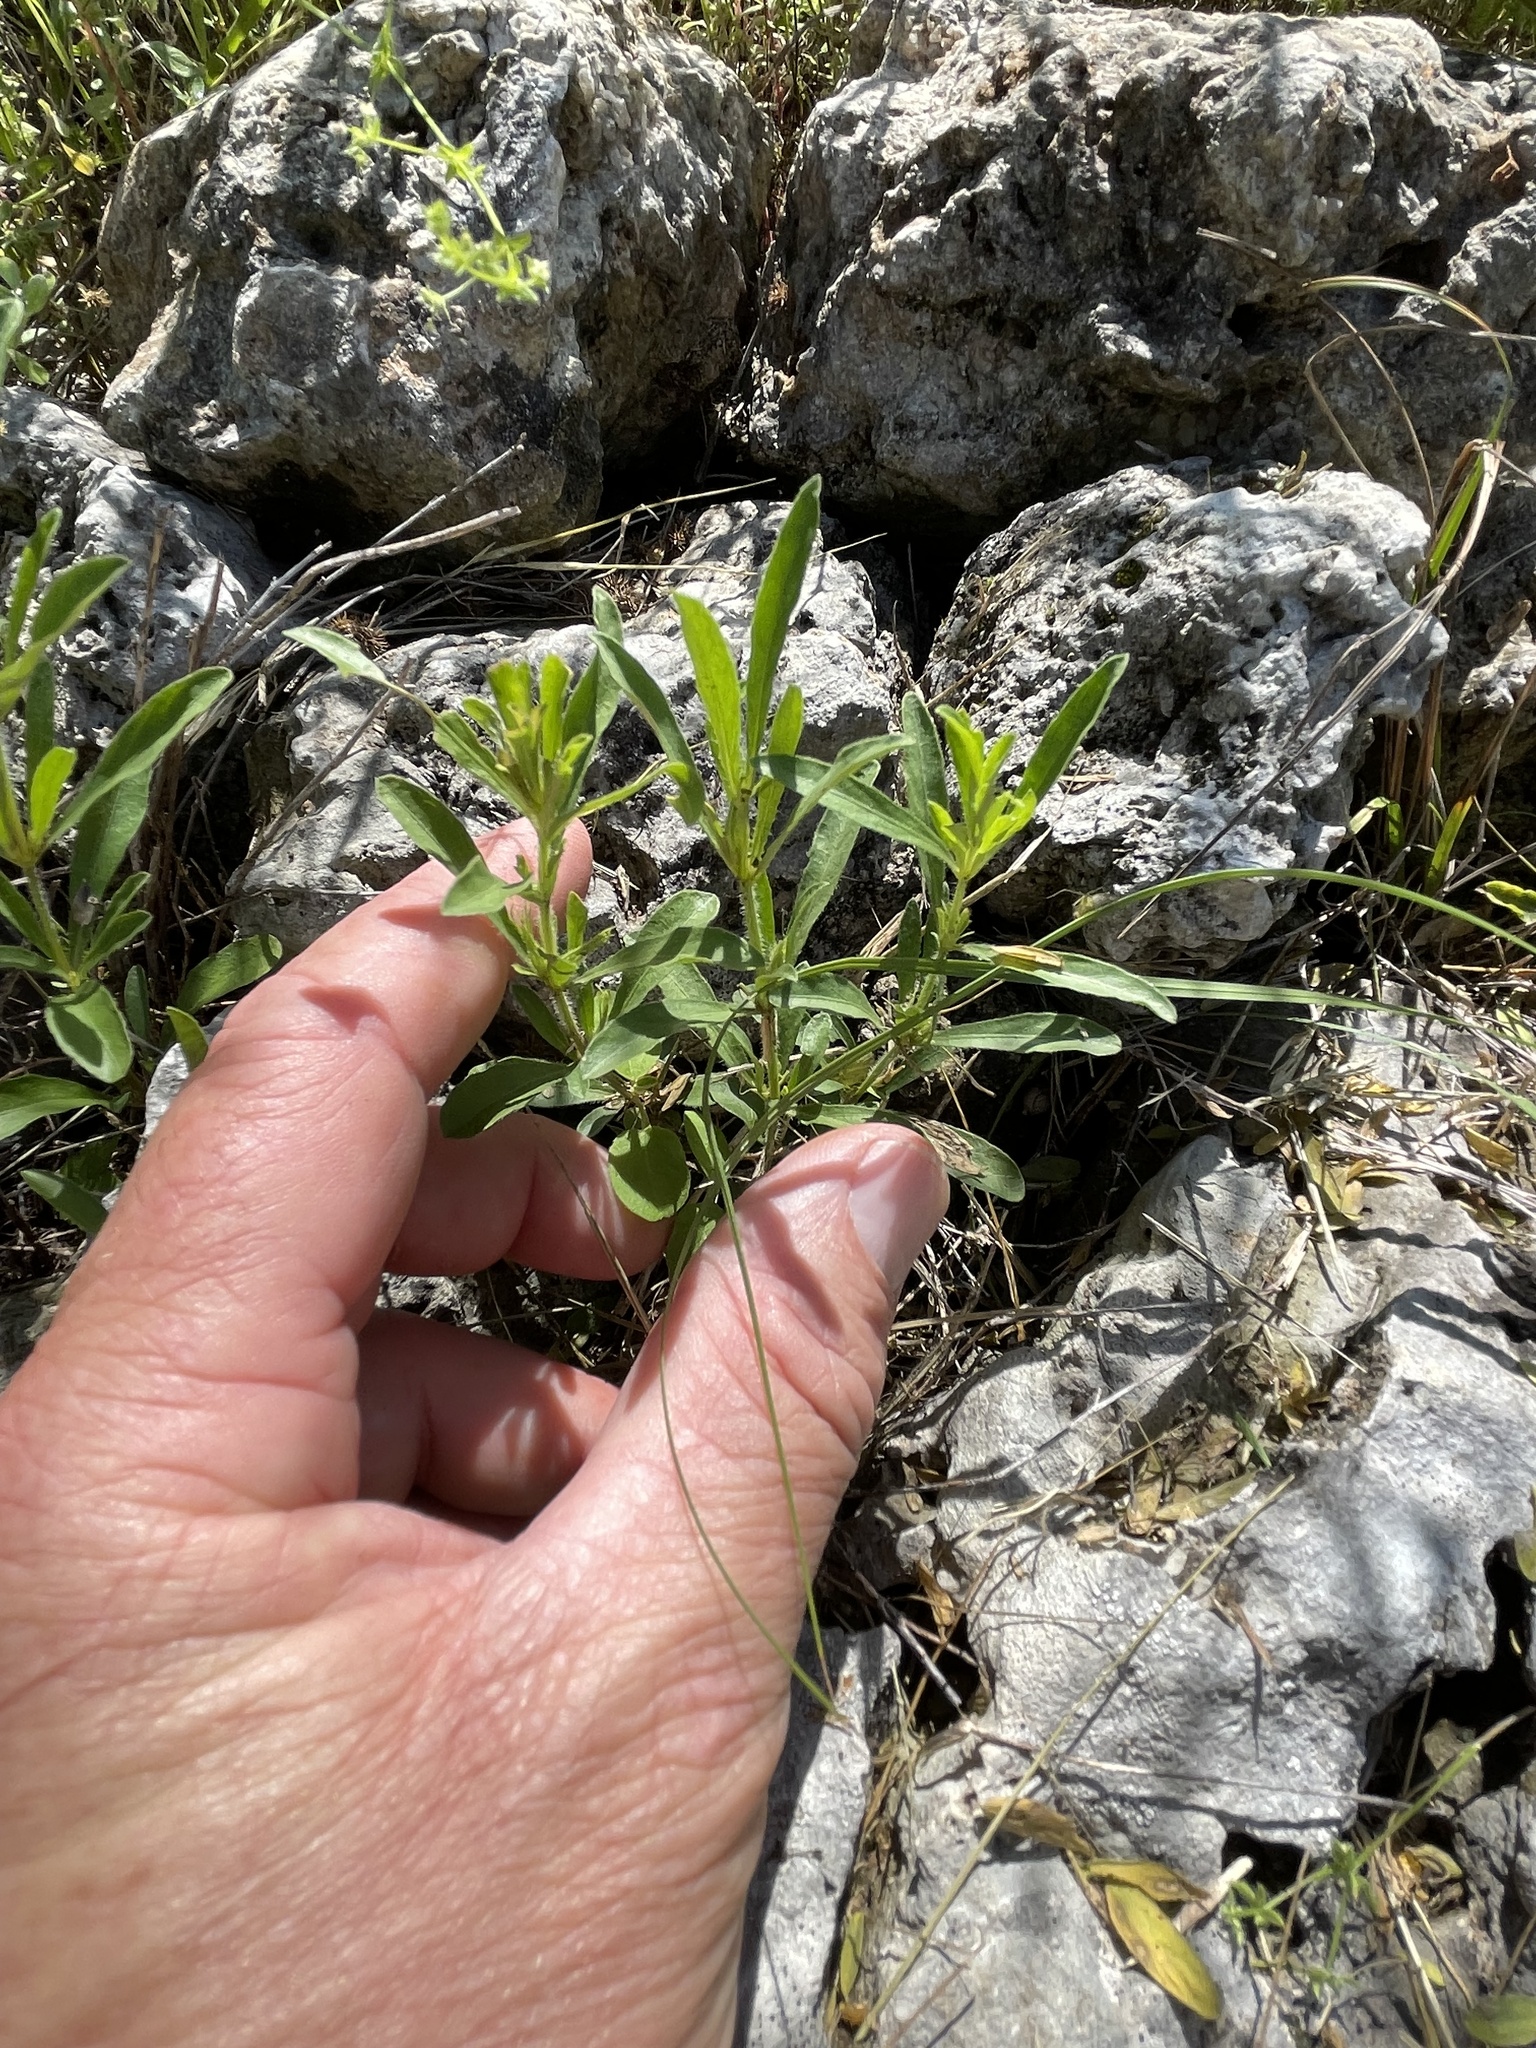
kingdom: Plantae
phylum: Tracheophyta
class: Magnoliopsida
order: Lamiales
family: Acanthaceae
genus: Dyschoriste
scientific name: Dyschoriste linearis
